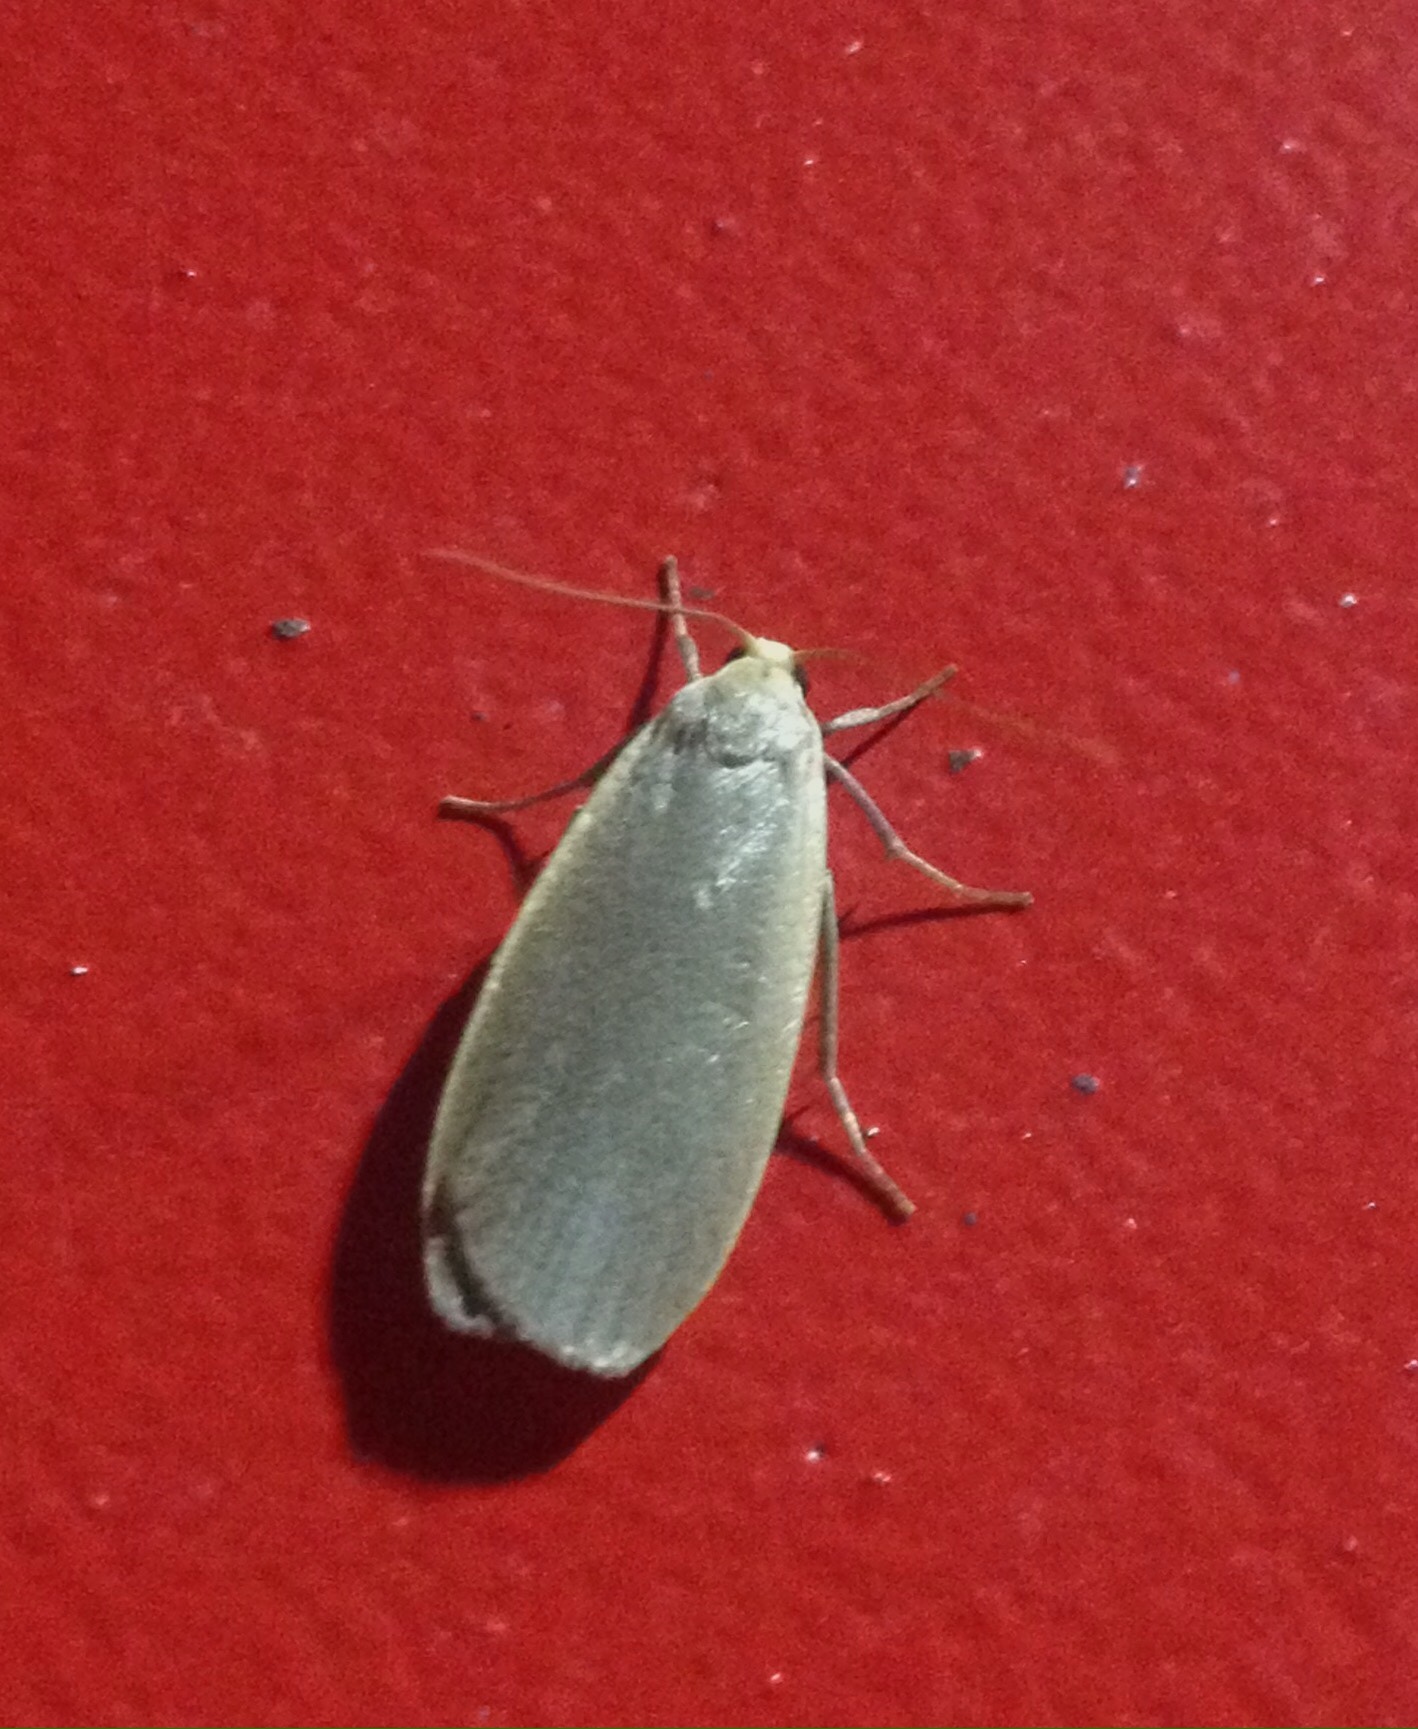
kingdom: Animalia
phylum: Arthropoda
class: Insecta
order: Lepidoptera
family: Erebidae
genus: Collita
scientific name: Collita griseola
